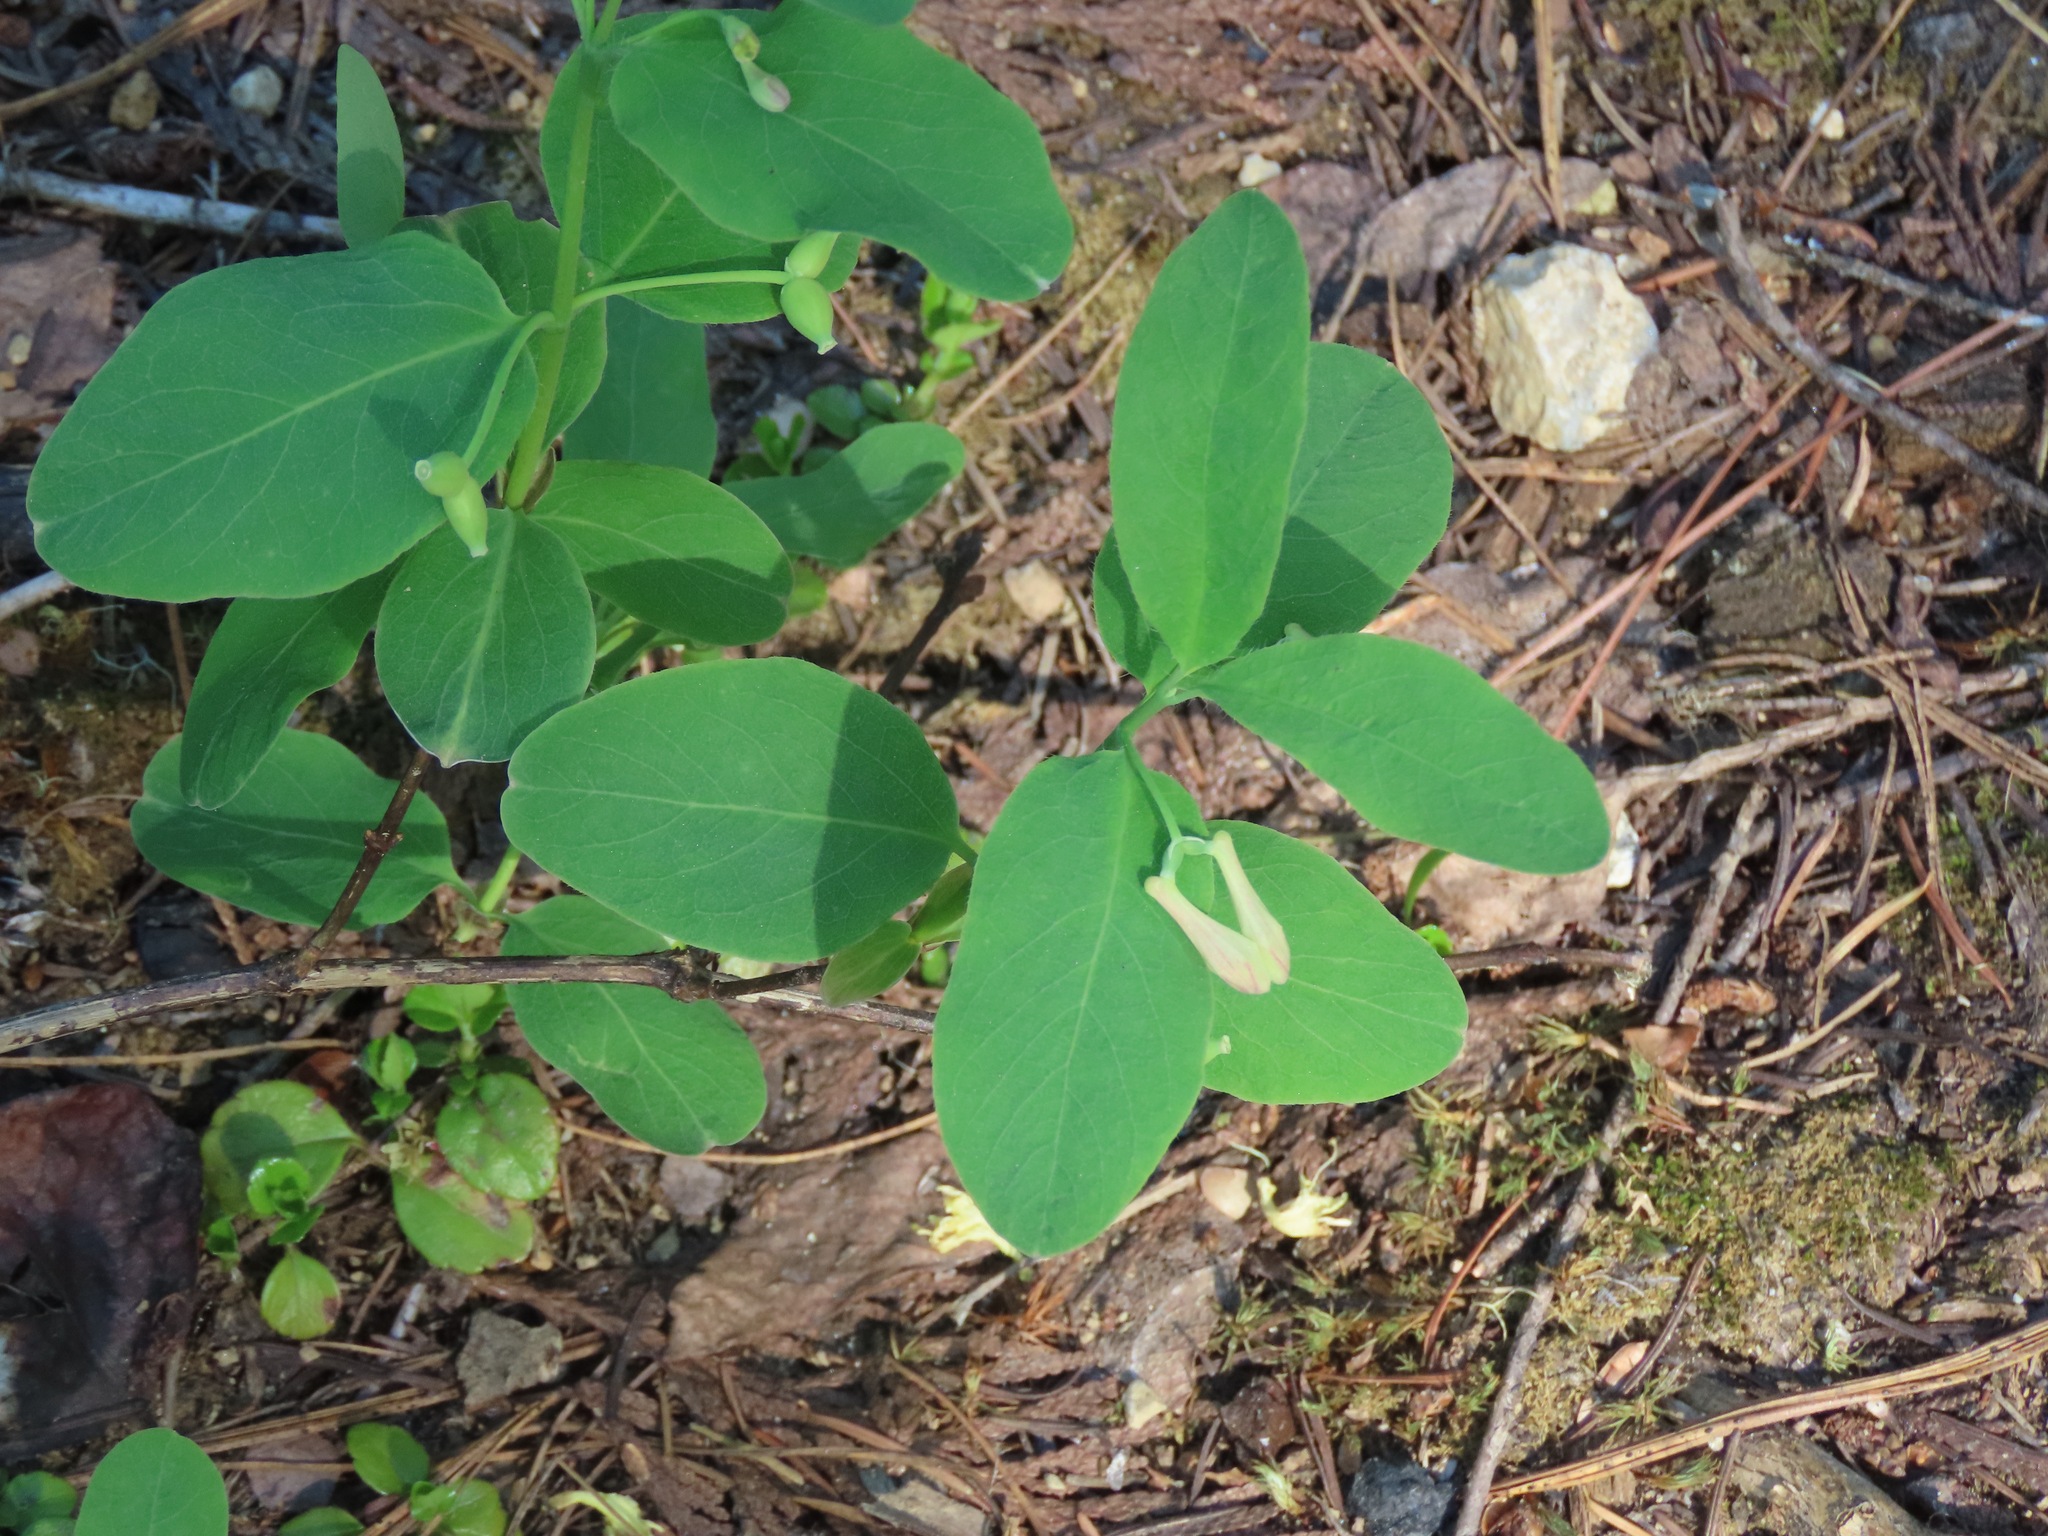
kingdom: Plantae
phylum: Tracheophyta
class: Magnoliopsida
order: Dipsacales
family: Caprifoliaceae
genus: Lonicera
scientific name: Lonicera utahensis
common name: Utah honeysuckle
